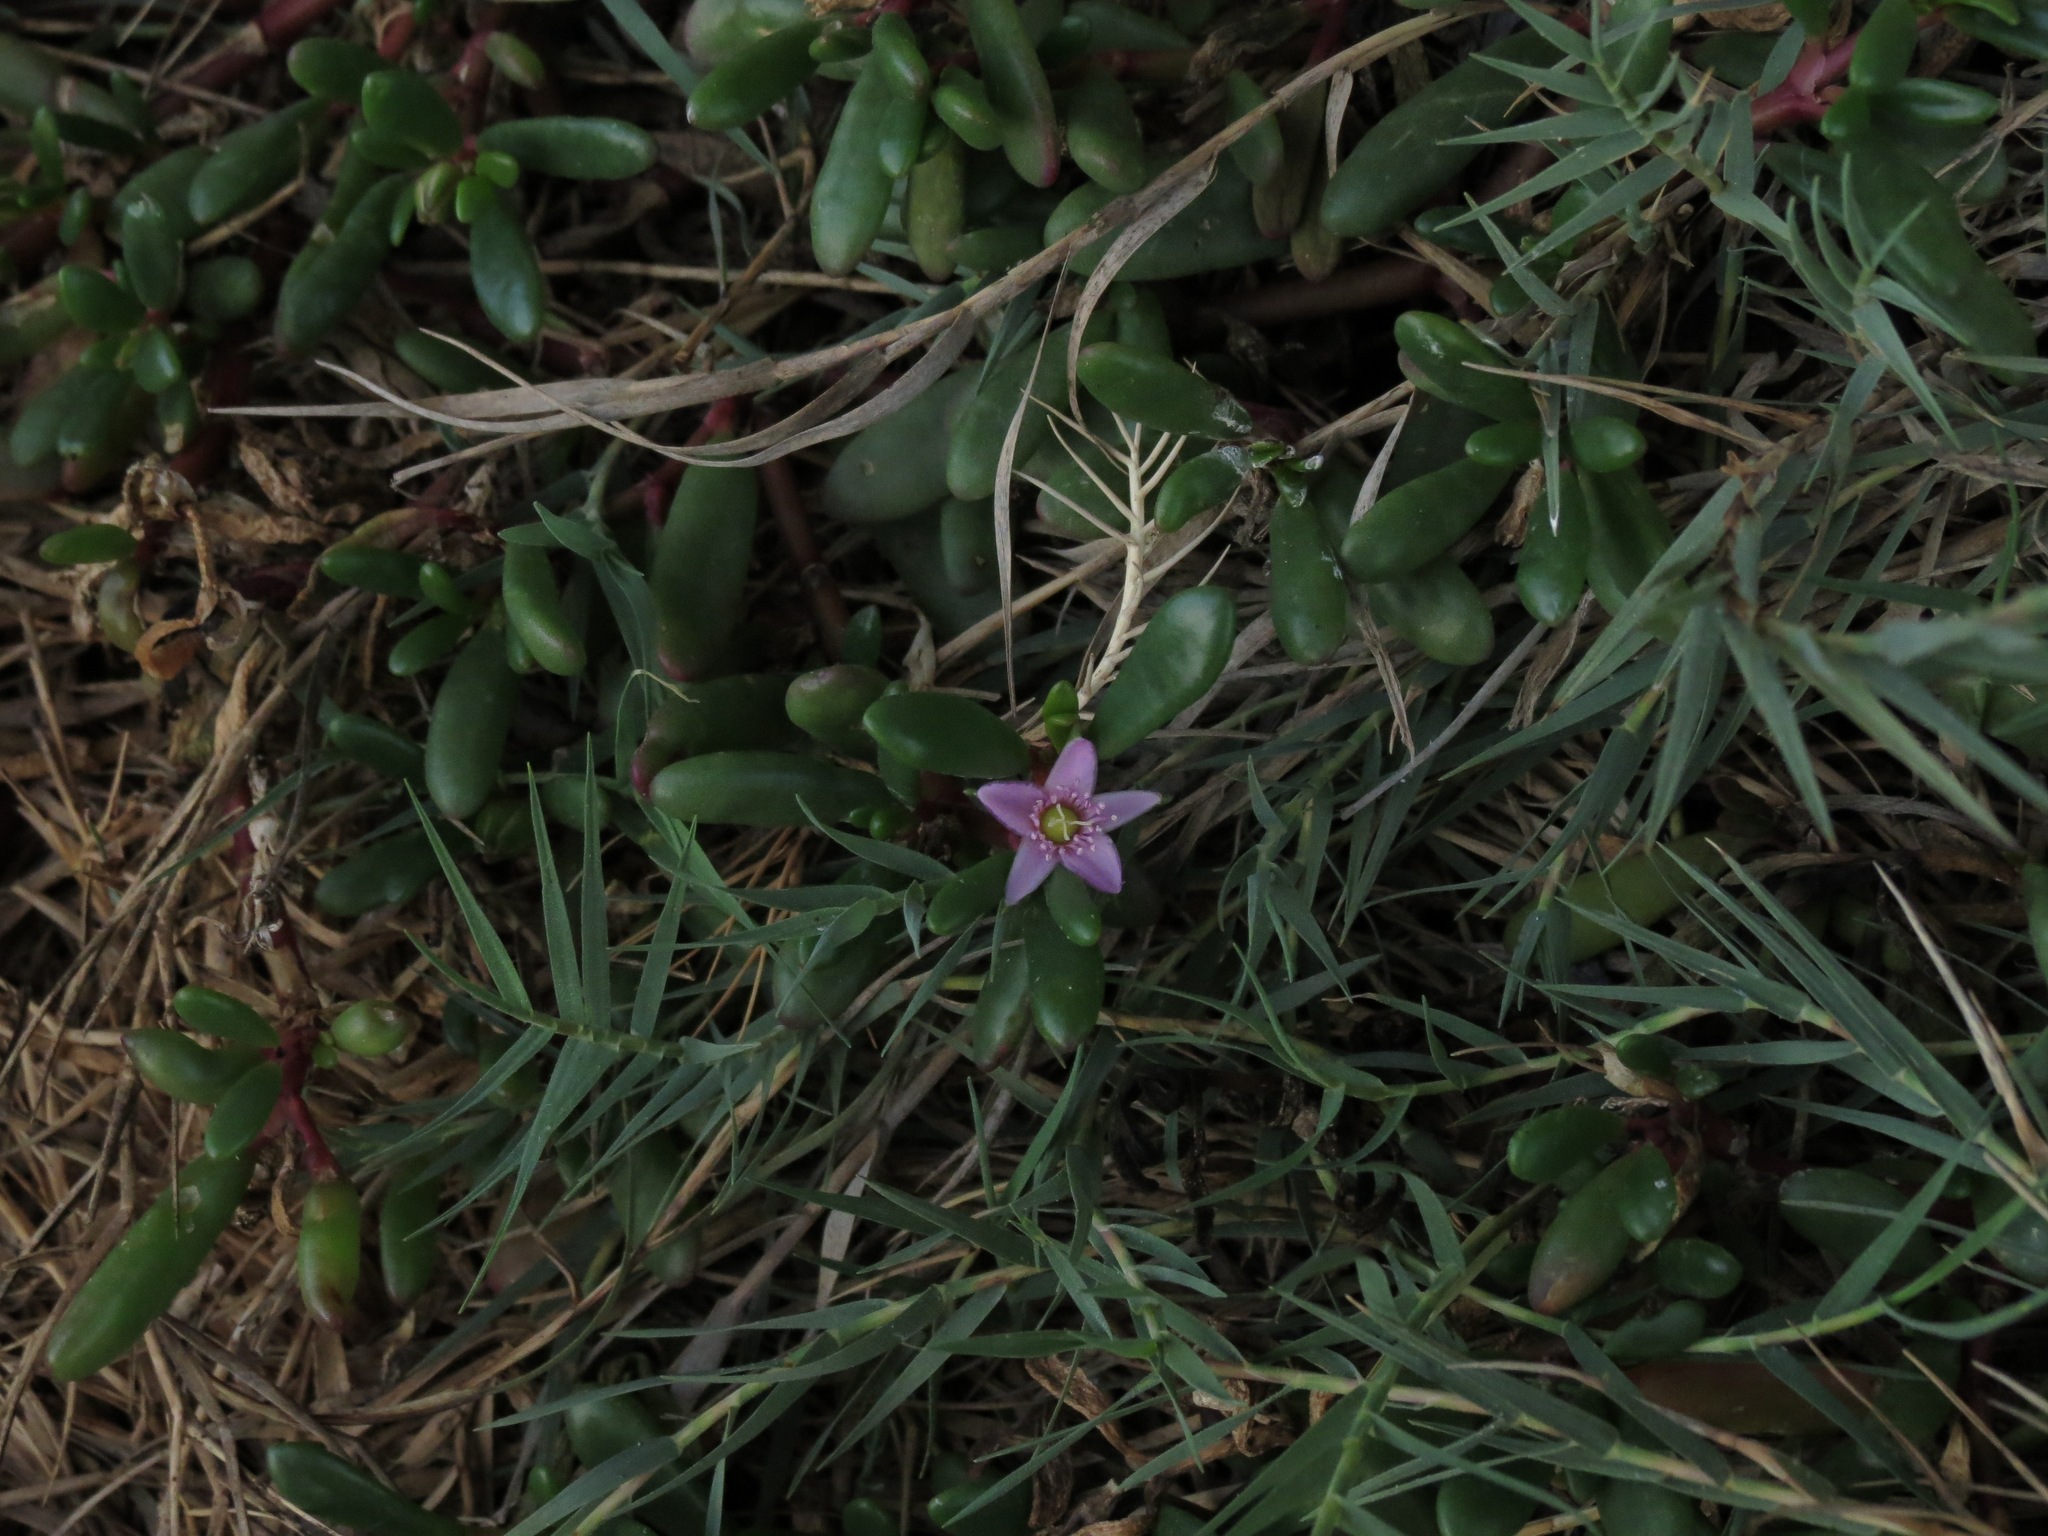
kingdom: Plantae
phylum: Tracheophyta
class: Magnoliopsida
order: Caryophyllales
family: Aizoaceae
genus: Sesuvium
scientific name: Sesuvium portulacastrum
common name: Sea-purslane
